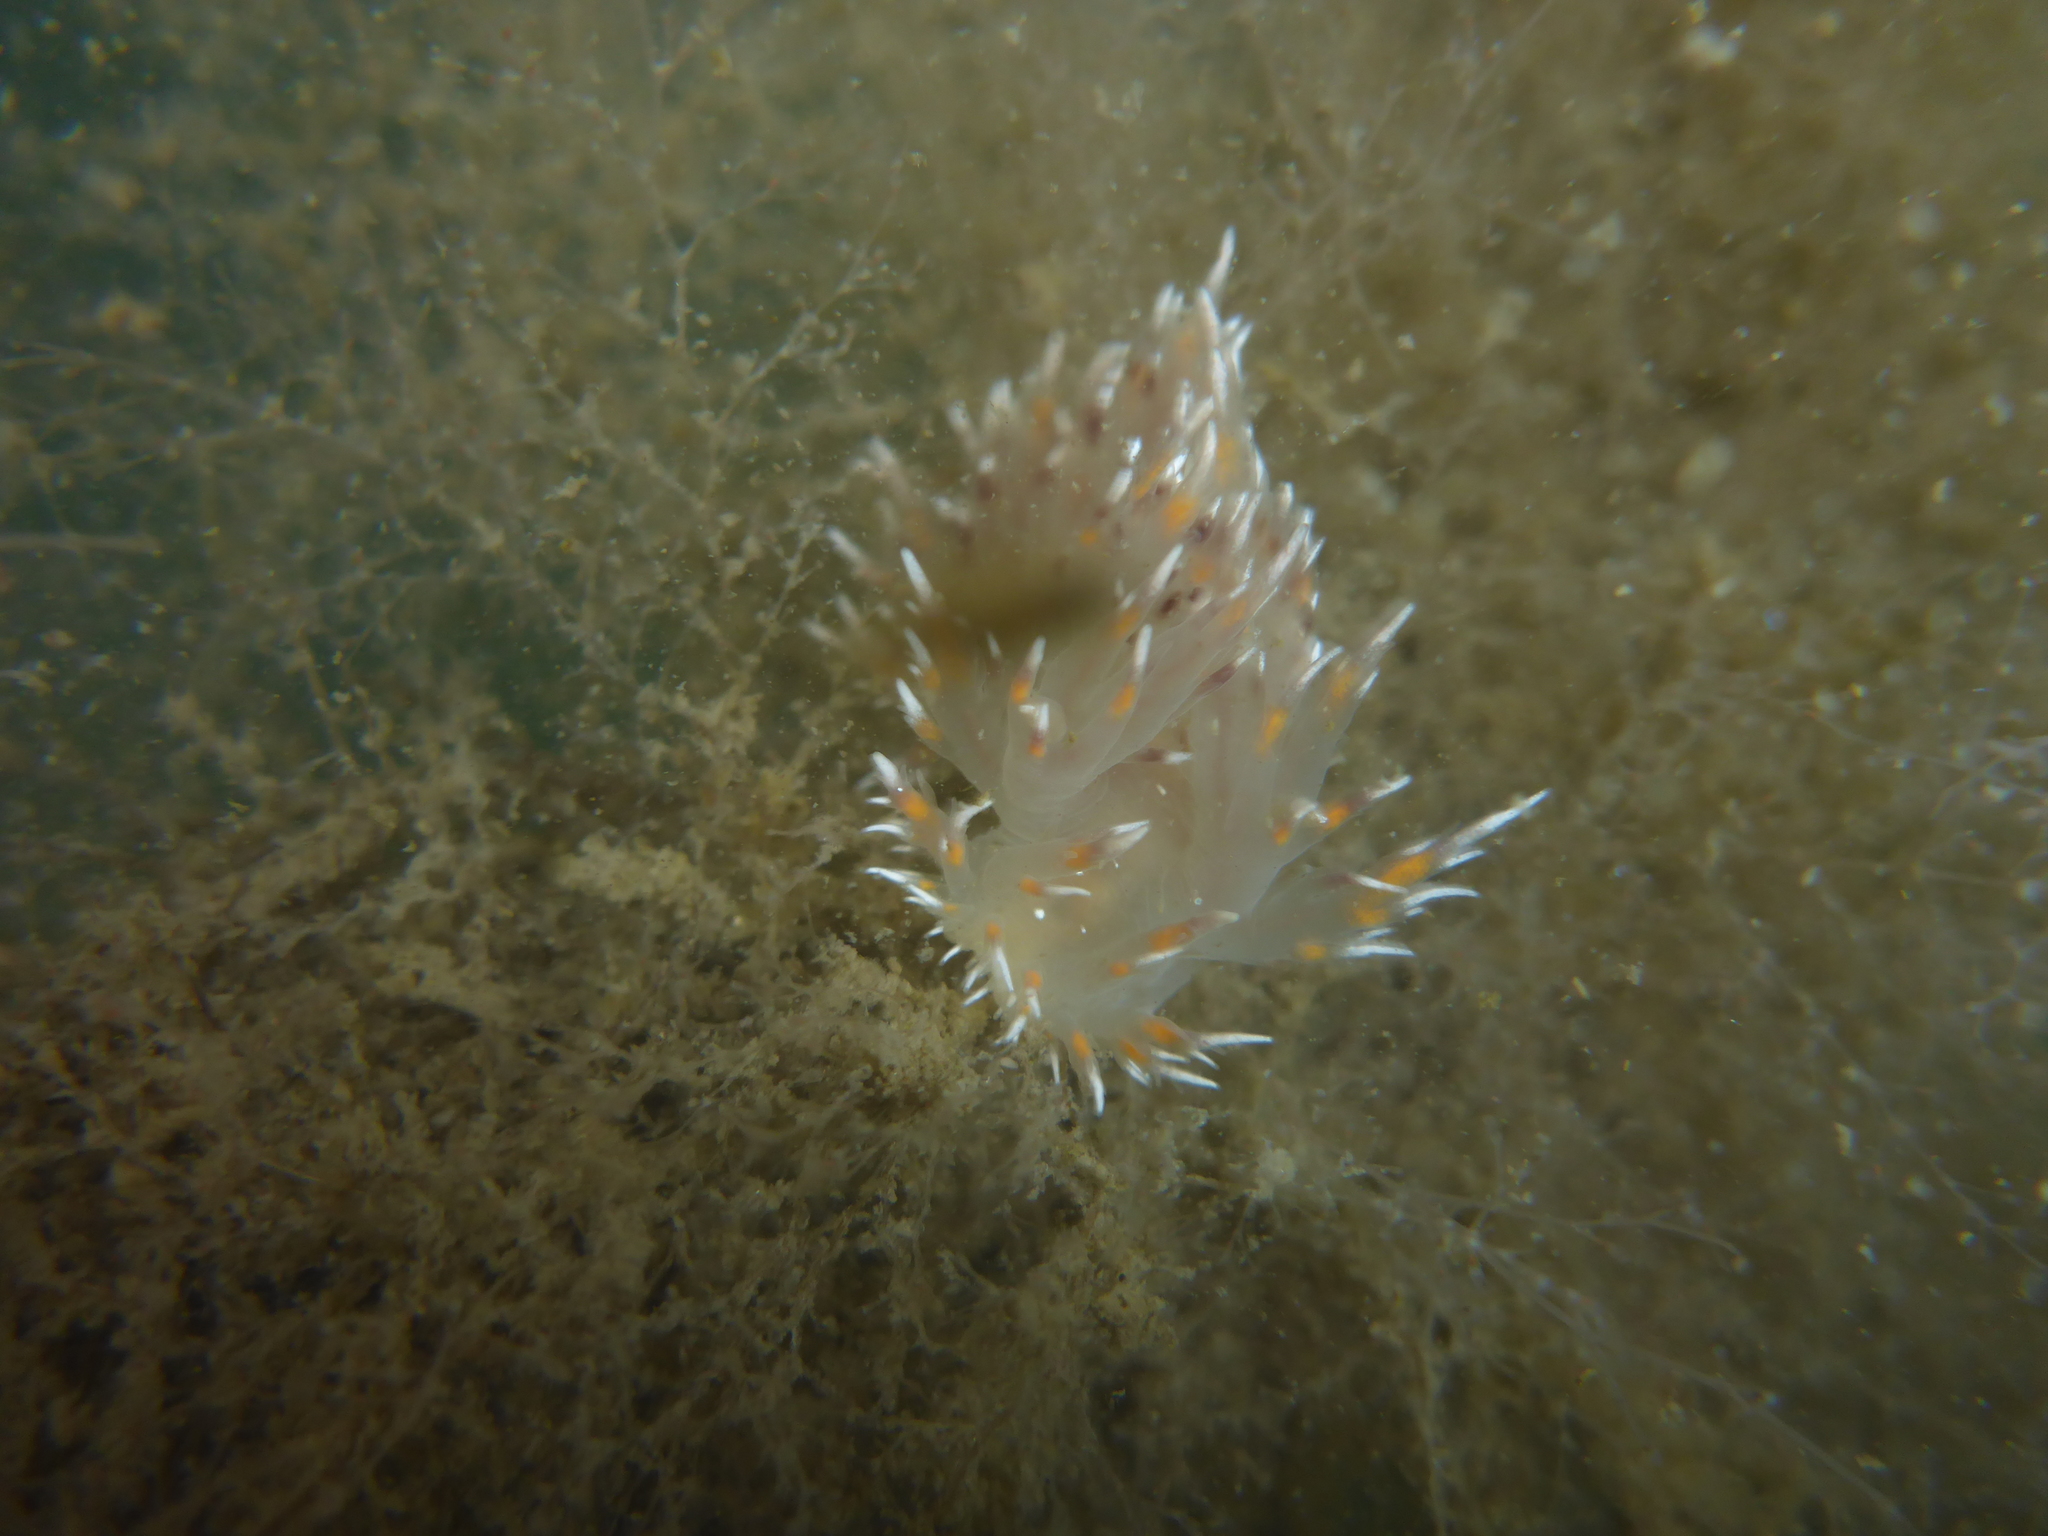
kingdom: Animalia
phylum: Mollusca
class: Gastropoda
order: Nudibranchia
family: Dendronotidae
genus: Dendronotus
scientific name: Dendronotus iris
